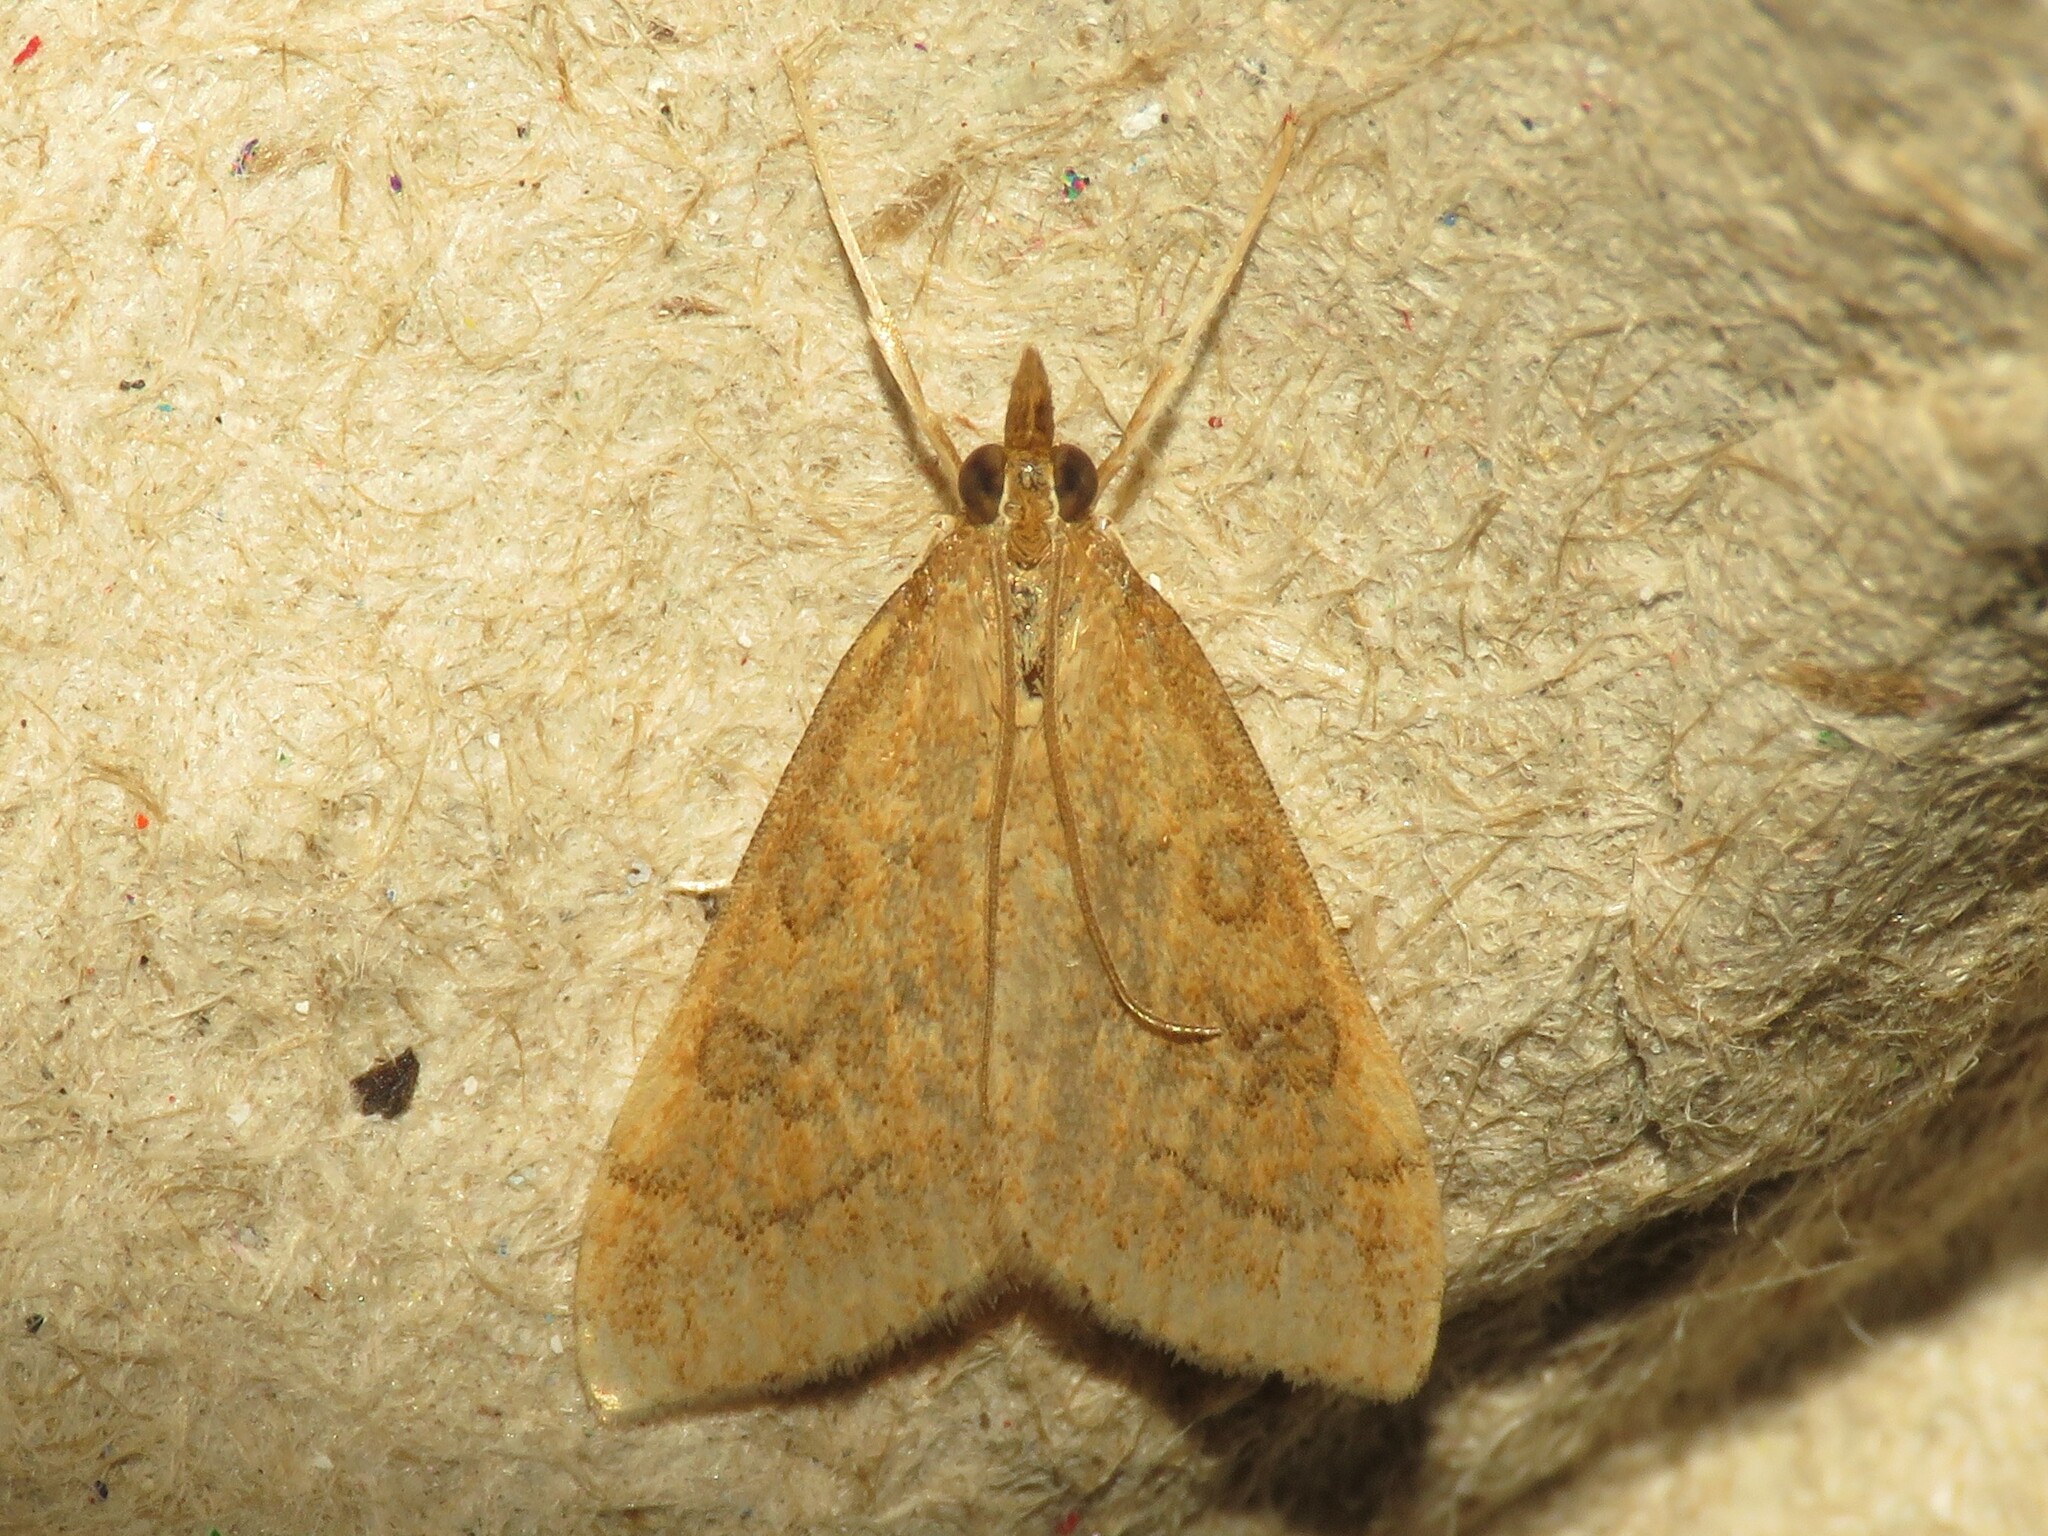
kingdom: Animalia
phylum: Arthropoda
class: Insecta
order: Lepidoptera
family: Crambidae
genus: Udea
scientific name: Udea rubigalis
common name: Celery leaftier moth
